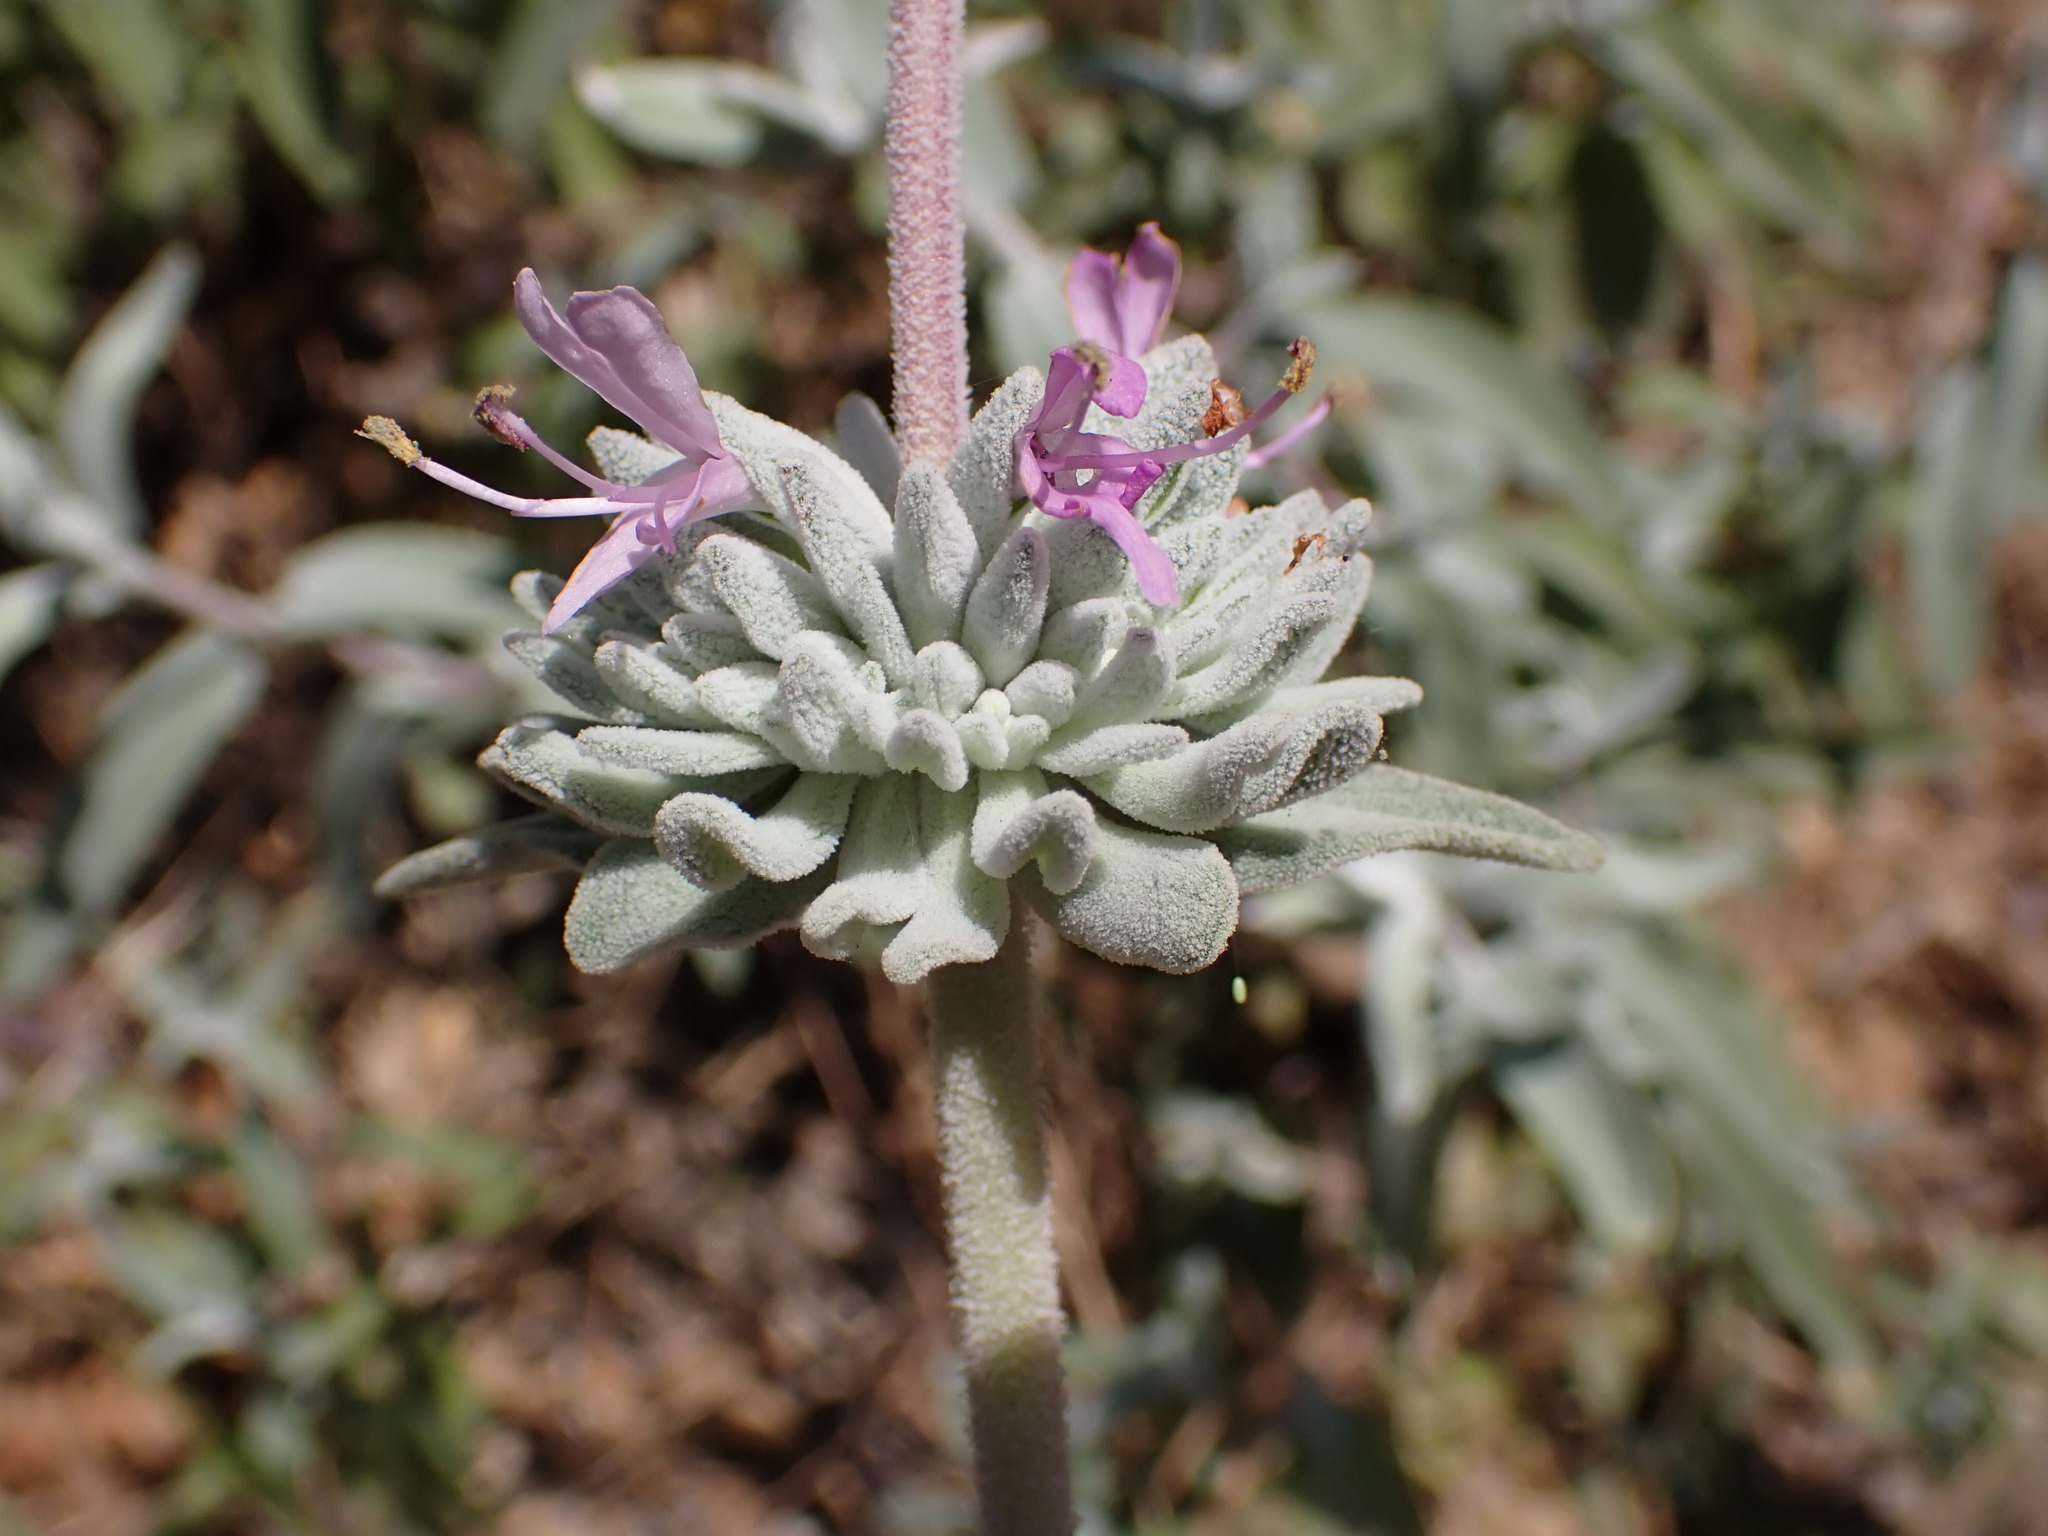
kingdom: Plantae
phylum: Tracheophyta
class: Magnoliopsida
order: Lamiales
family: Lamiaceae
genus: Salvia
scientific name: Salvia leucophylla
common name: Purple sage
